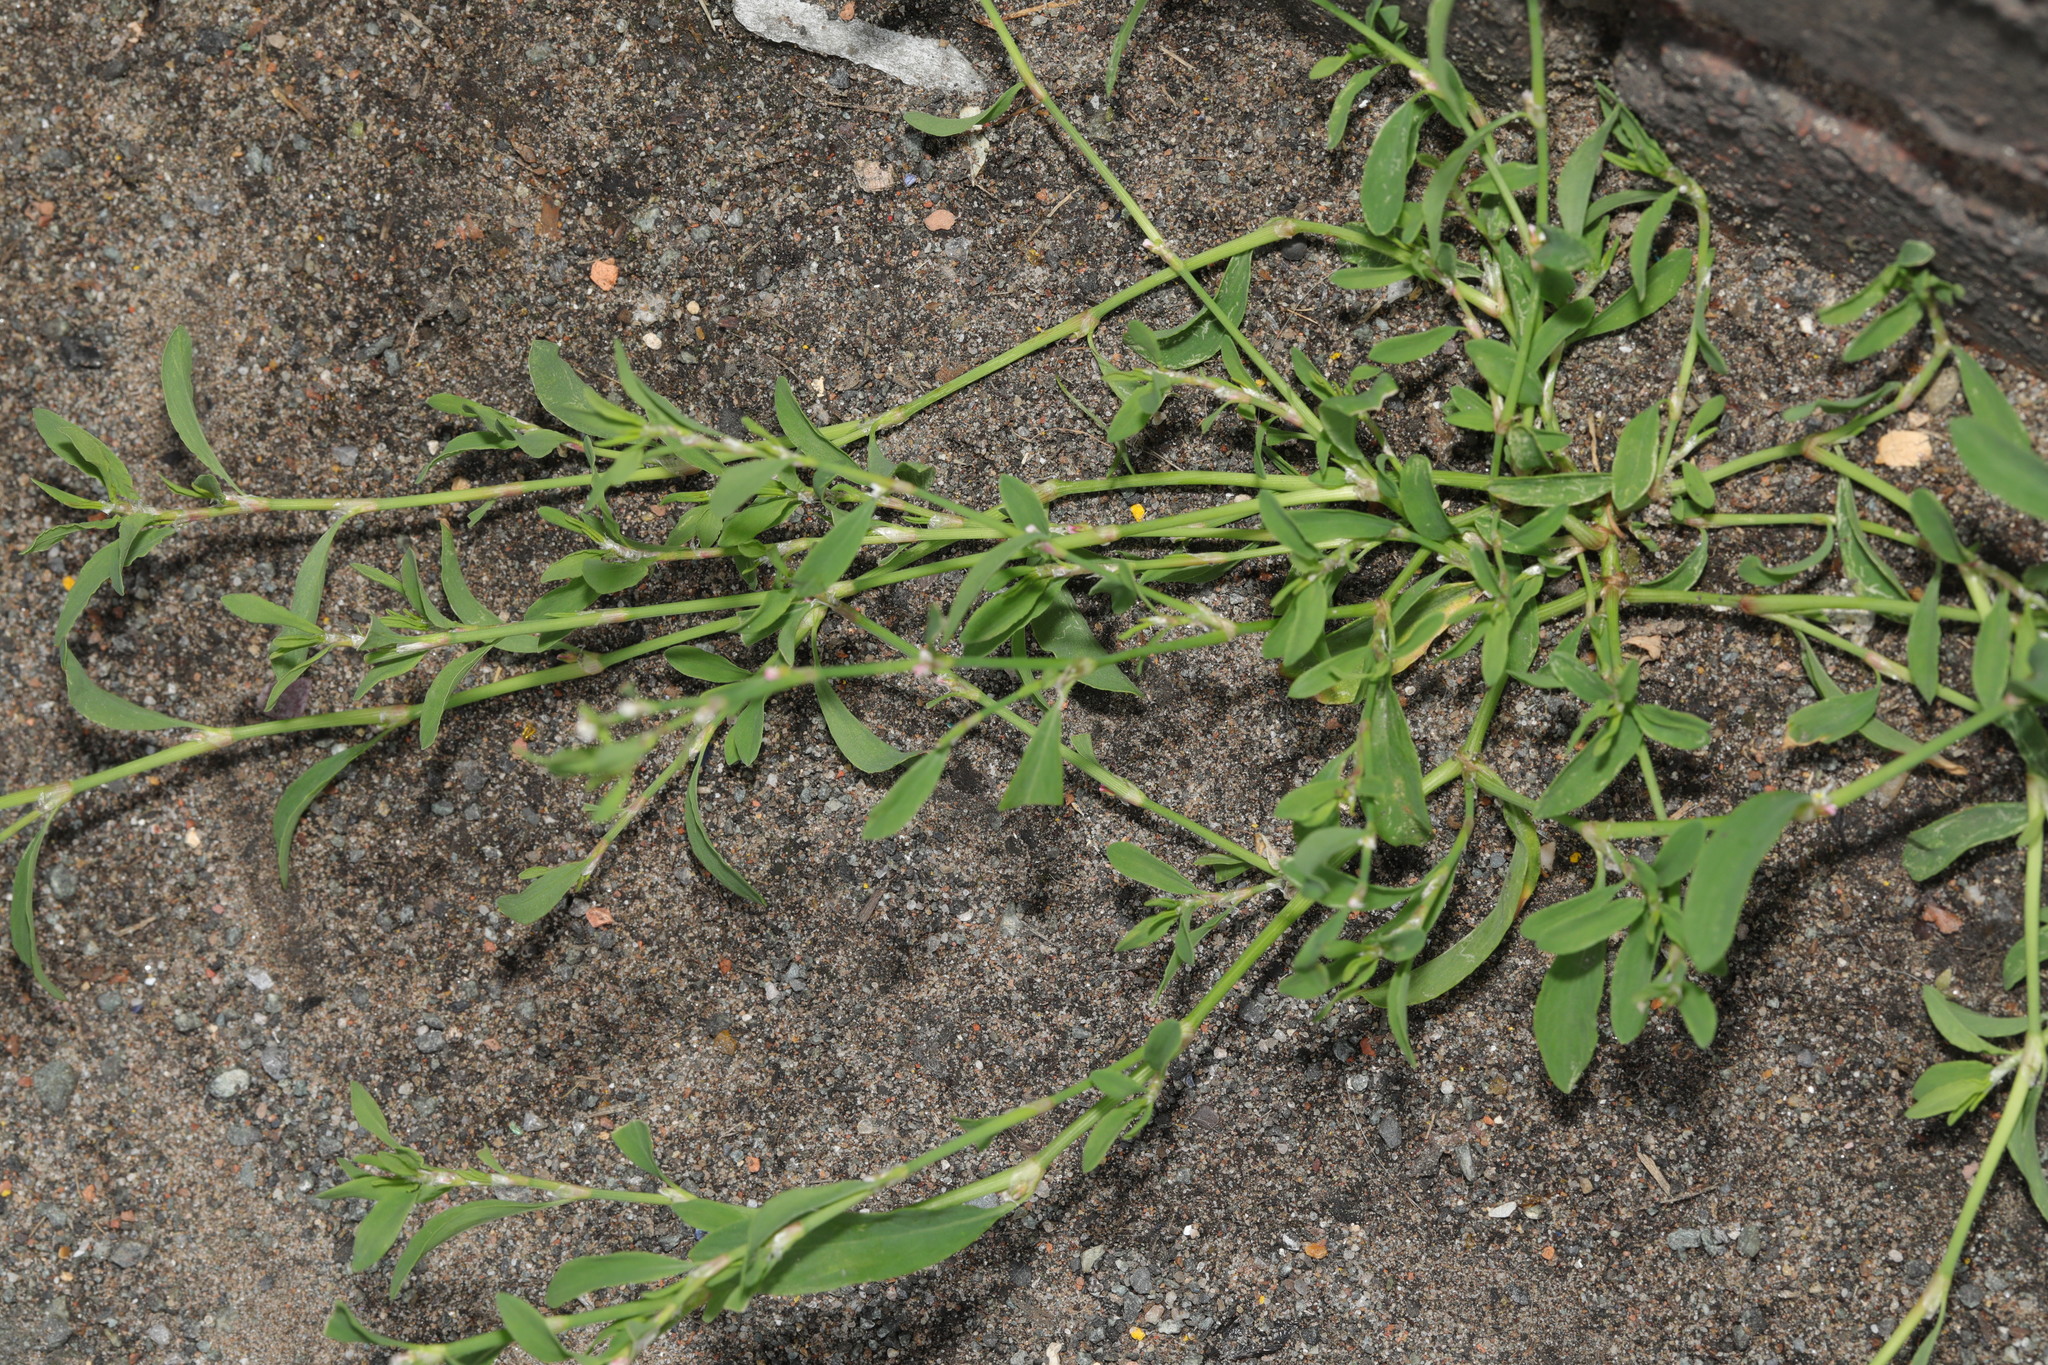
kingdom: Plantae
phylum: Tracheophyta
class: Magnoliopsida
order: Caryophyllales
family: Polygonaceae
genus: Polygonum
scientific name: Polygonum aviculare
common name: Prostrate knotweed
